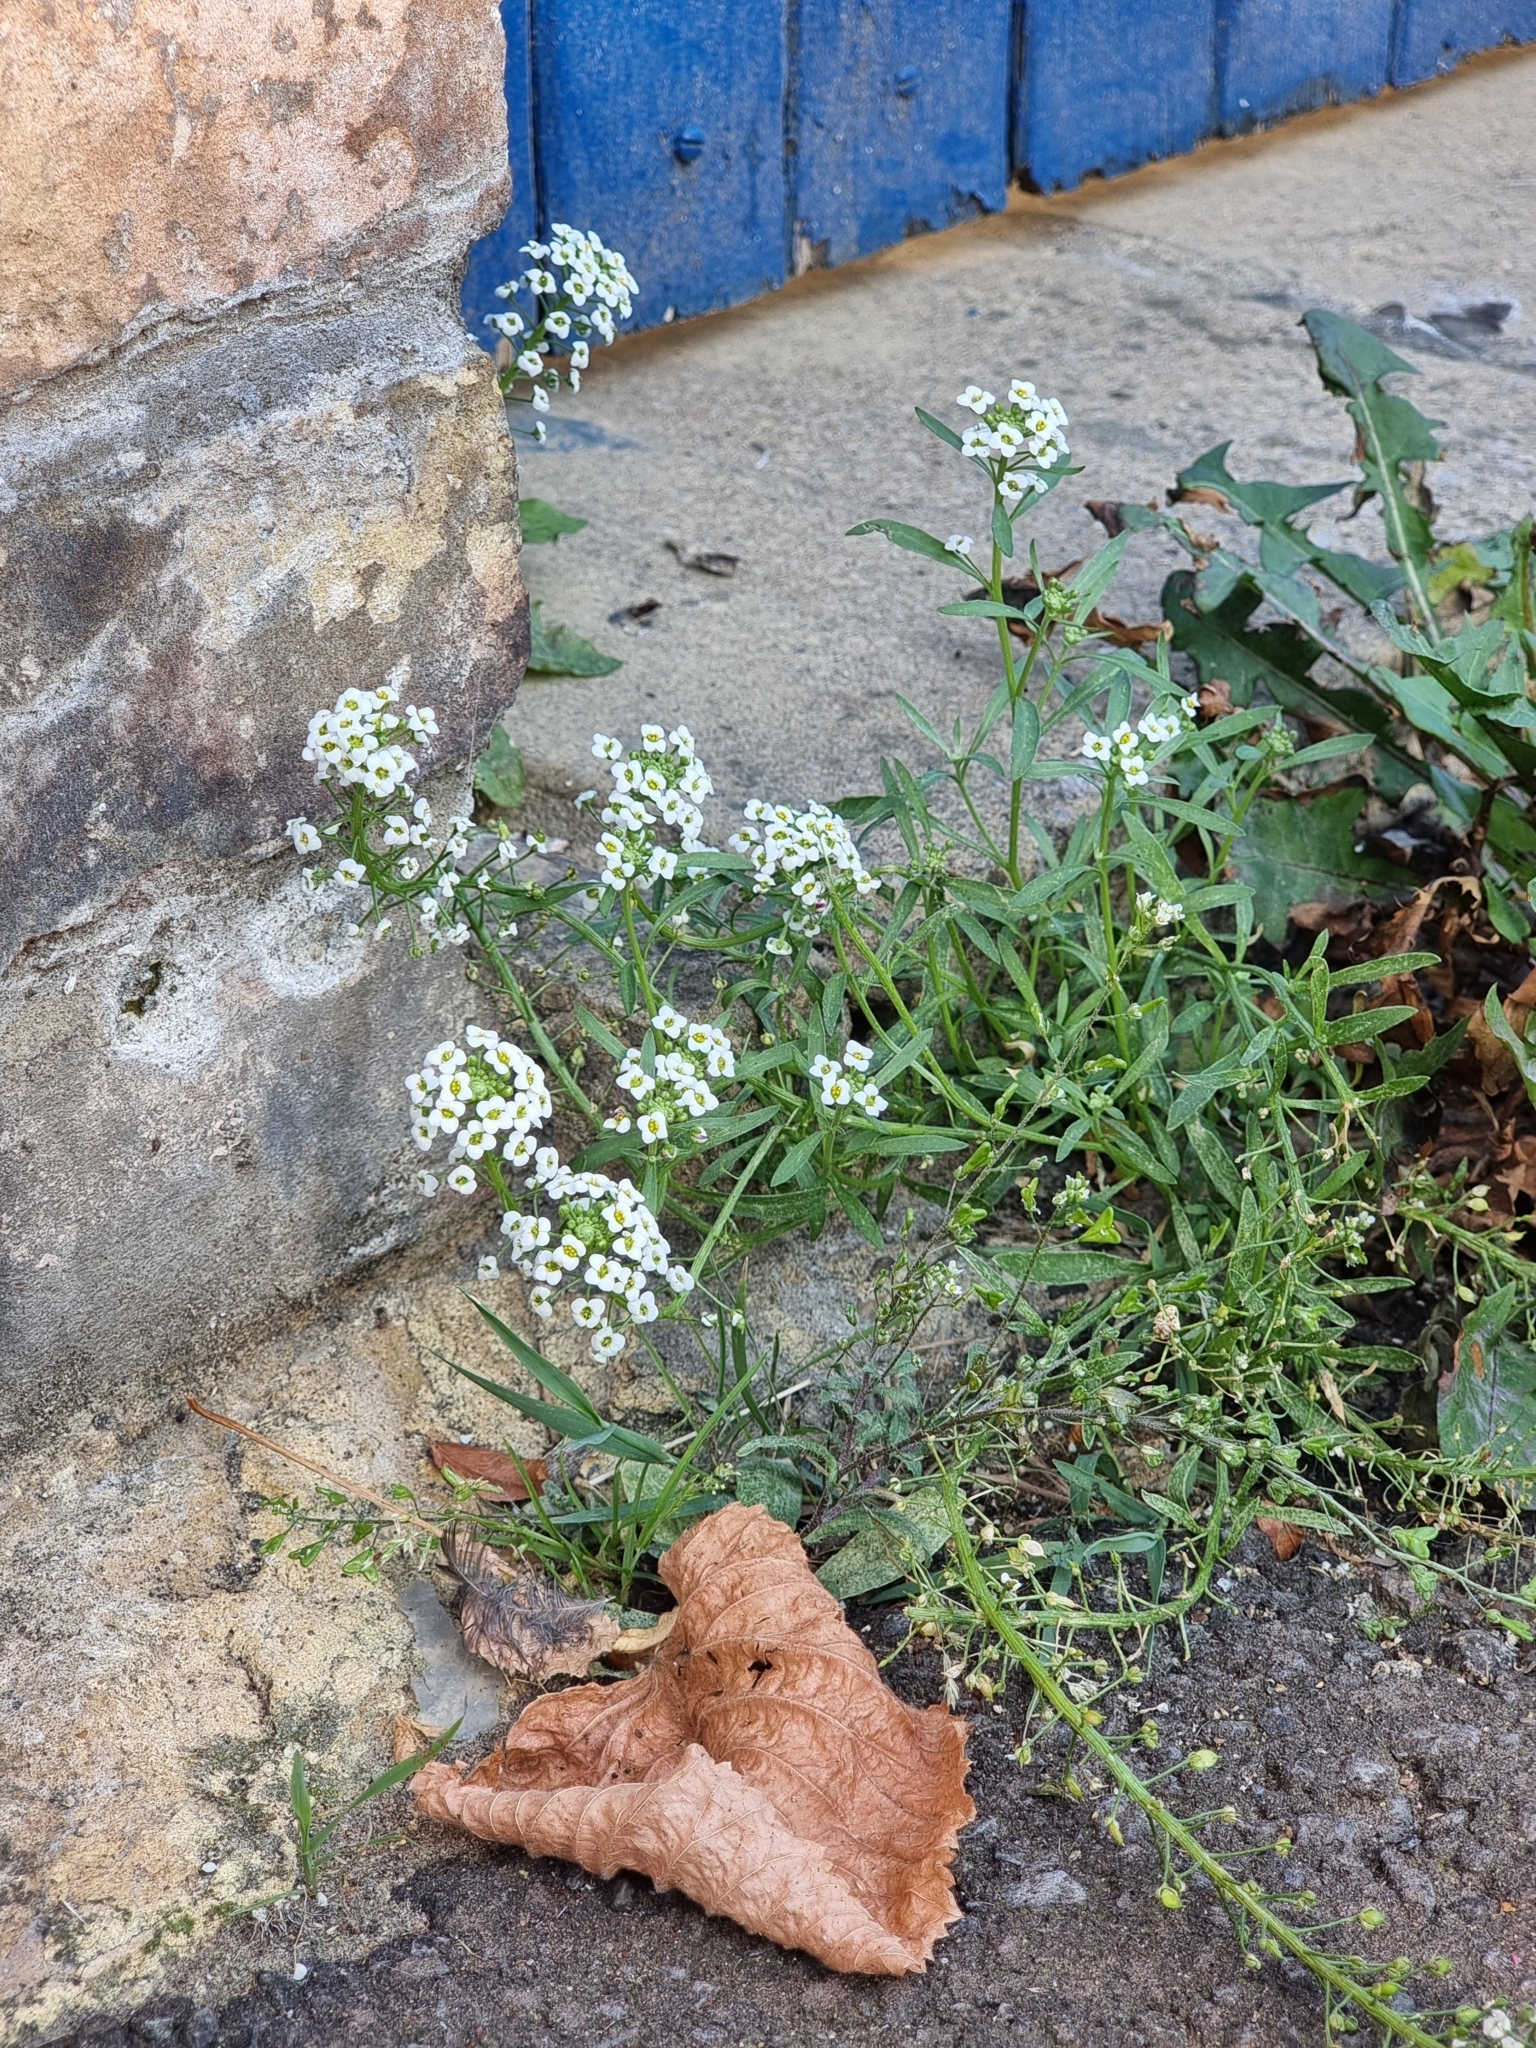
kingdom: Plantae
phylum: Tracheophyta
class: Magnoliopsida
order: Brassicales
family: Brassicaceae
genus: Lobularia
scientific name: Lobularia maritima
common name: Sweet alison
